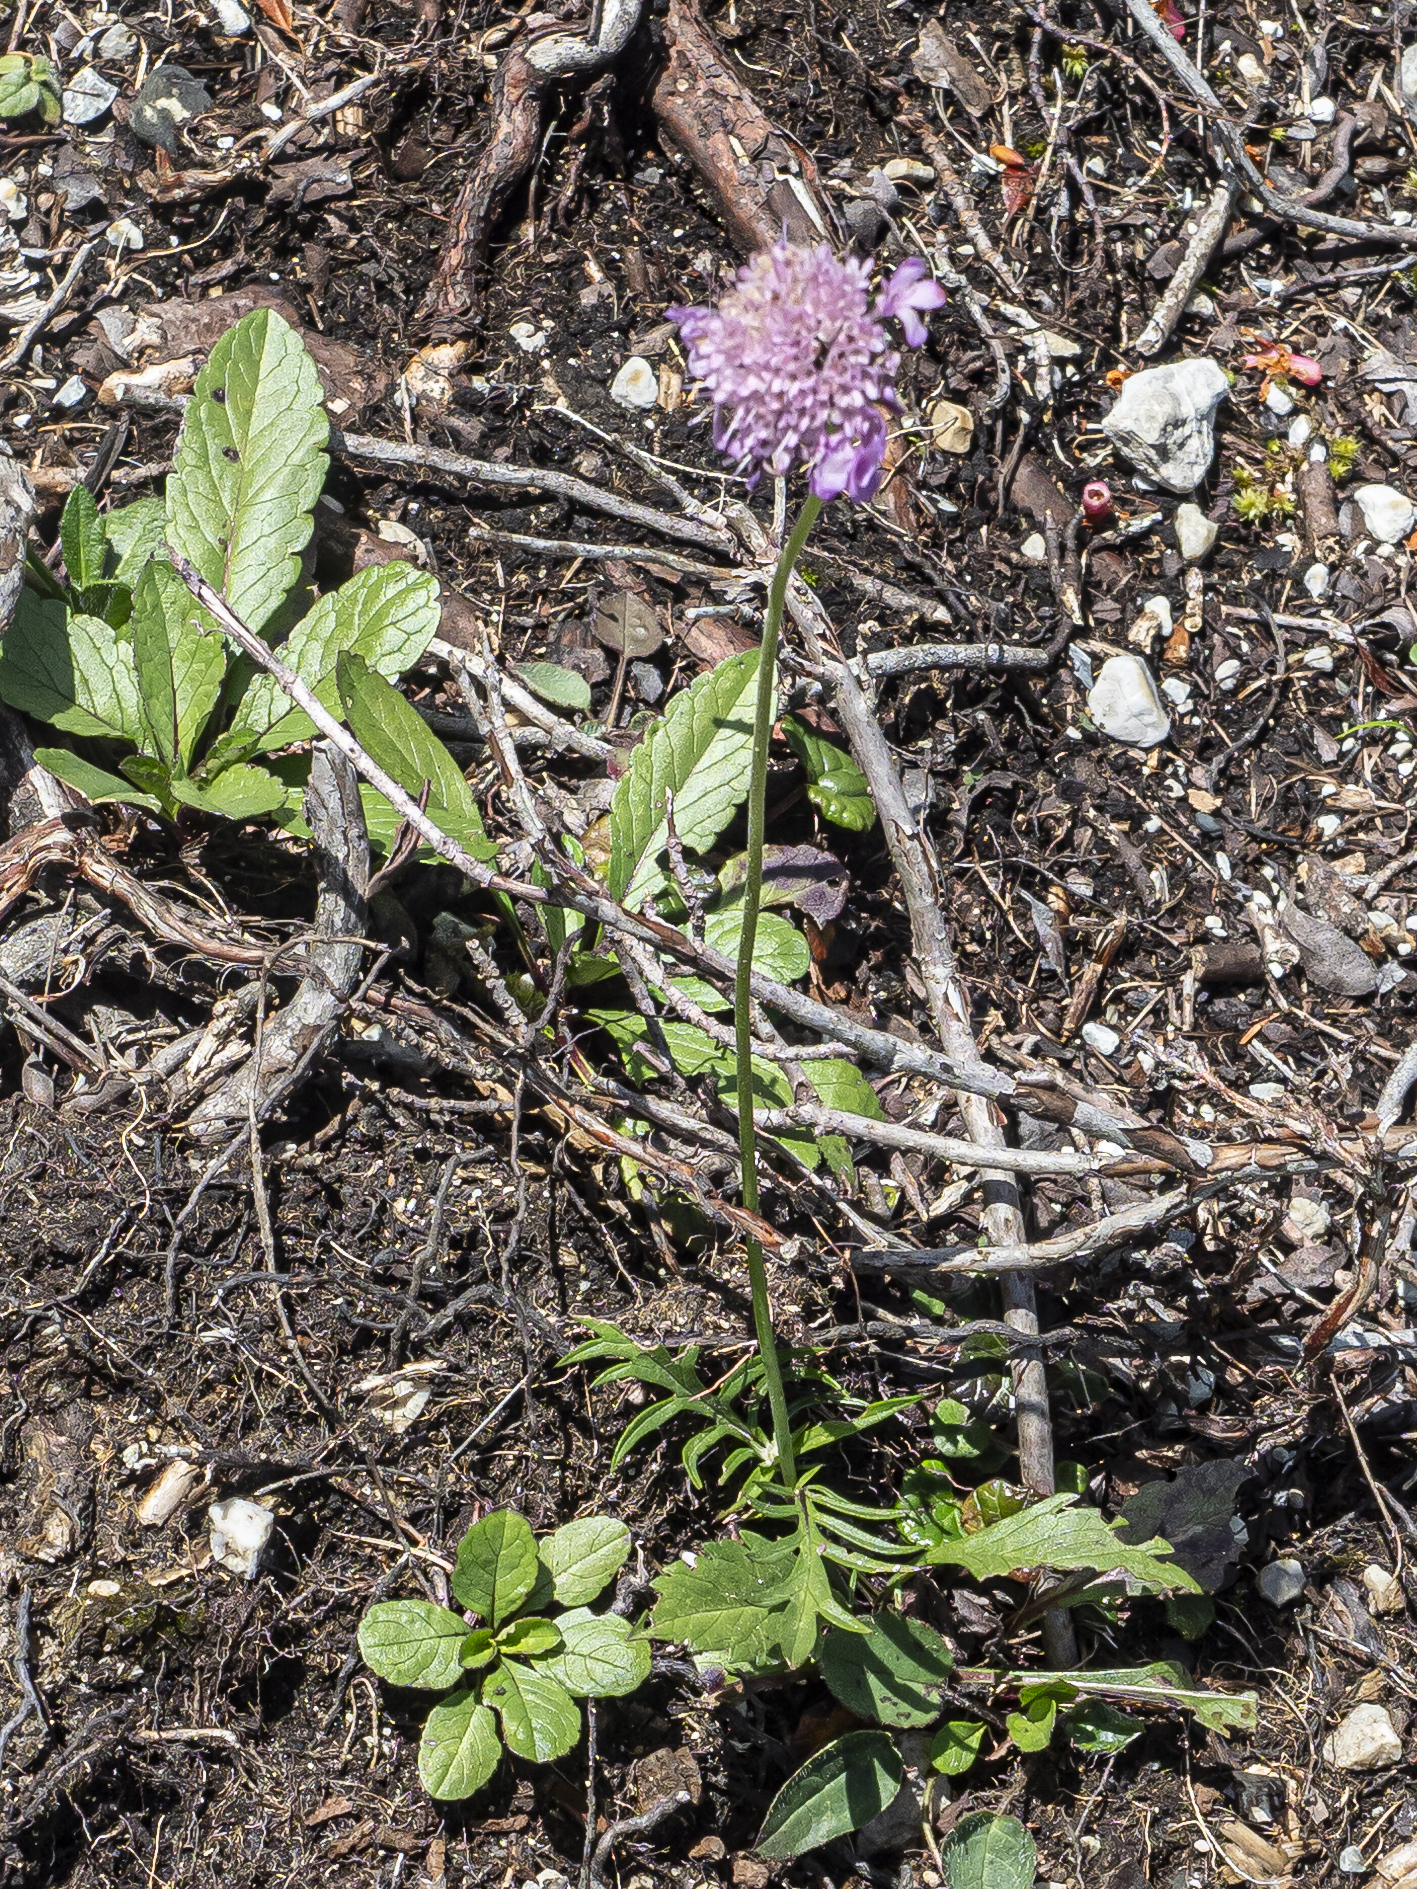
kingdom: Plantae
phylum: Tracheophyta
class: Magnoliopsida
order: Dipsacales
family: Caprifoliaceae
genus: Scabiosa
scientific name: Scabiosa lucida
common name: Shining scabious
